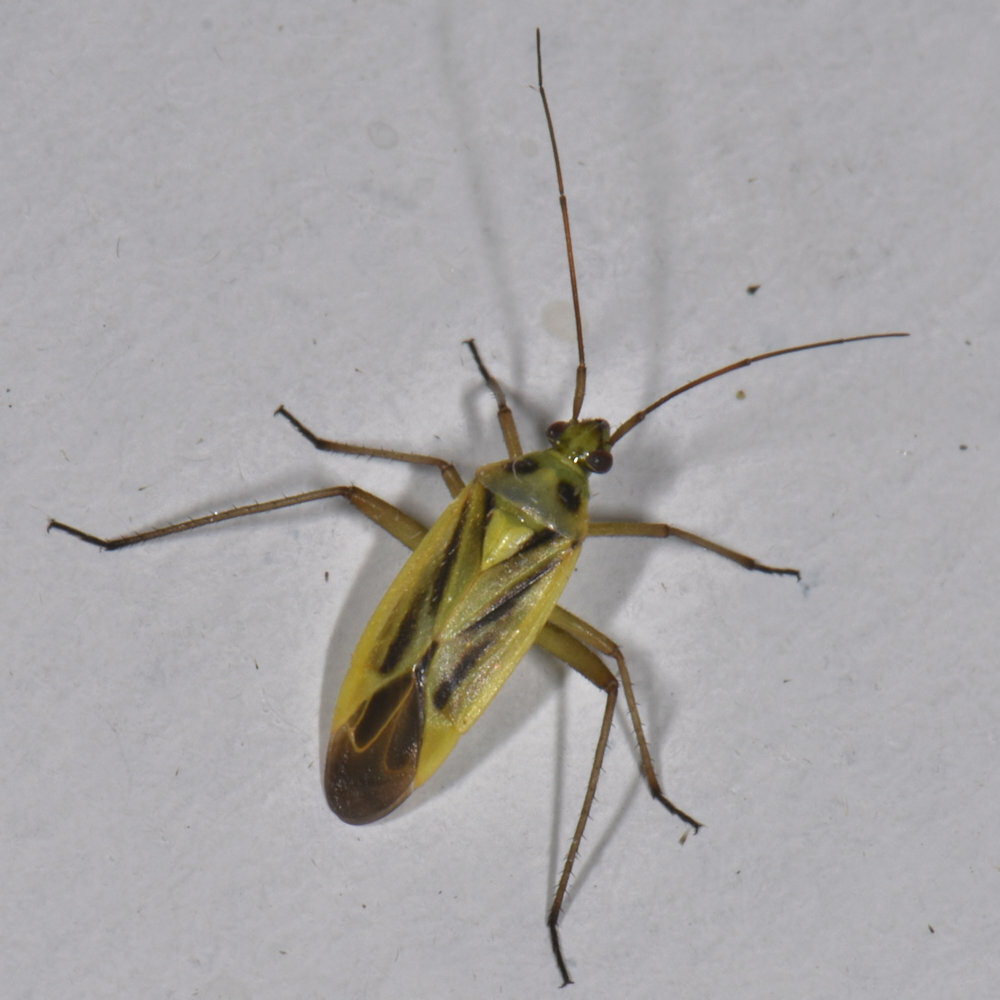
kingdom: Animalia
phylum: Arthropoda
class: Insecta
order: Hemiptera
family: Miridae
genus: Stenotus
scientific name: Stenotus binotatus
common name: Plant bug
